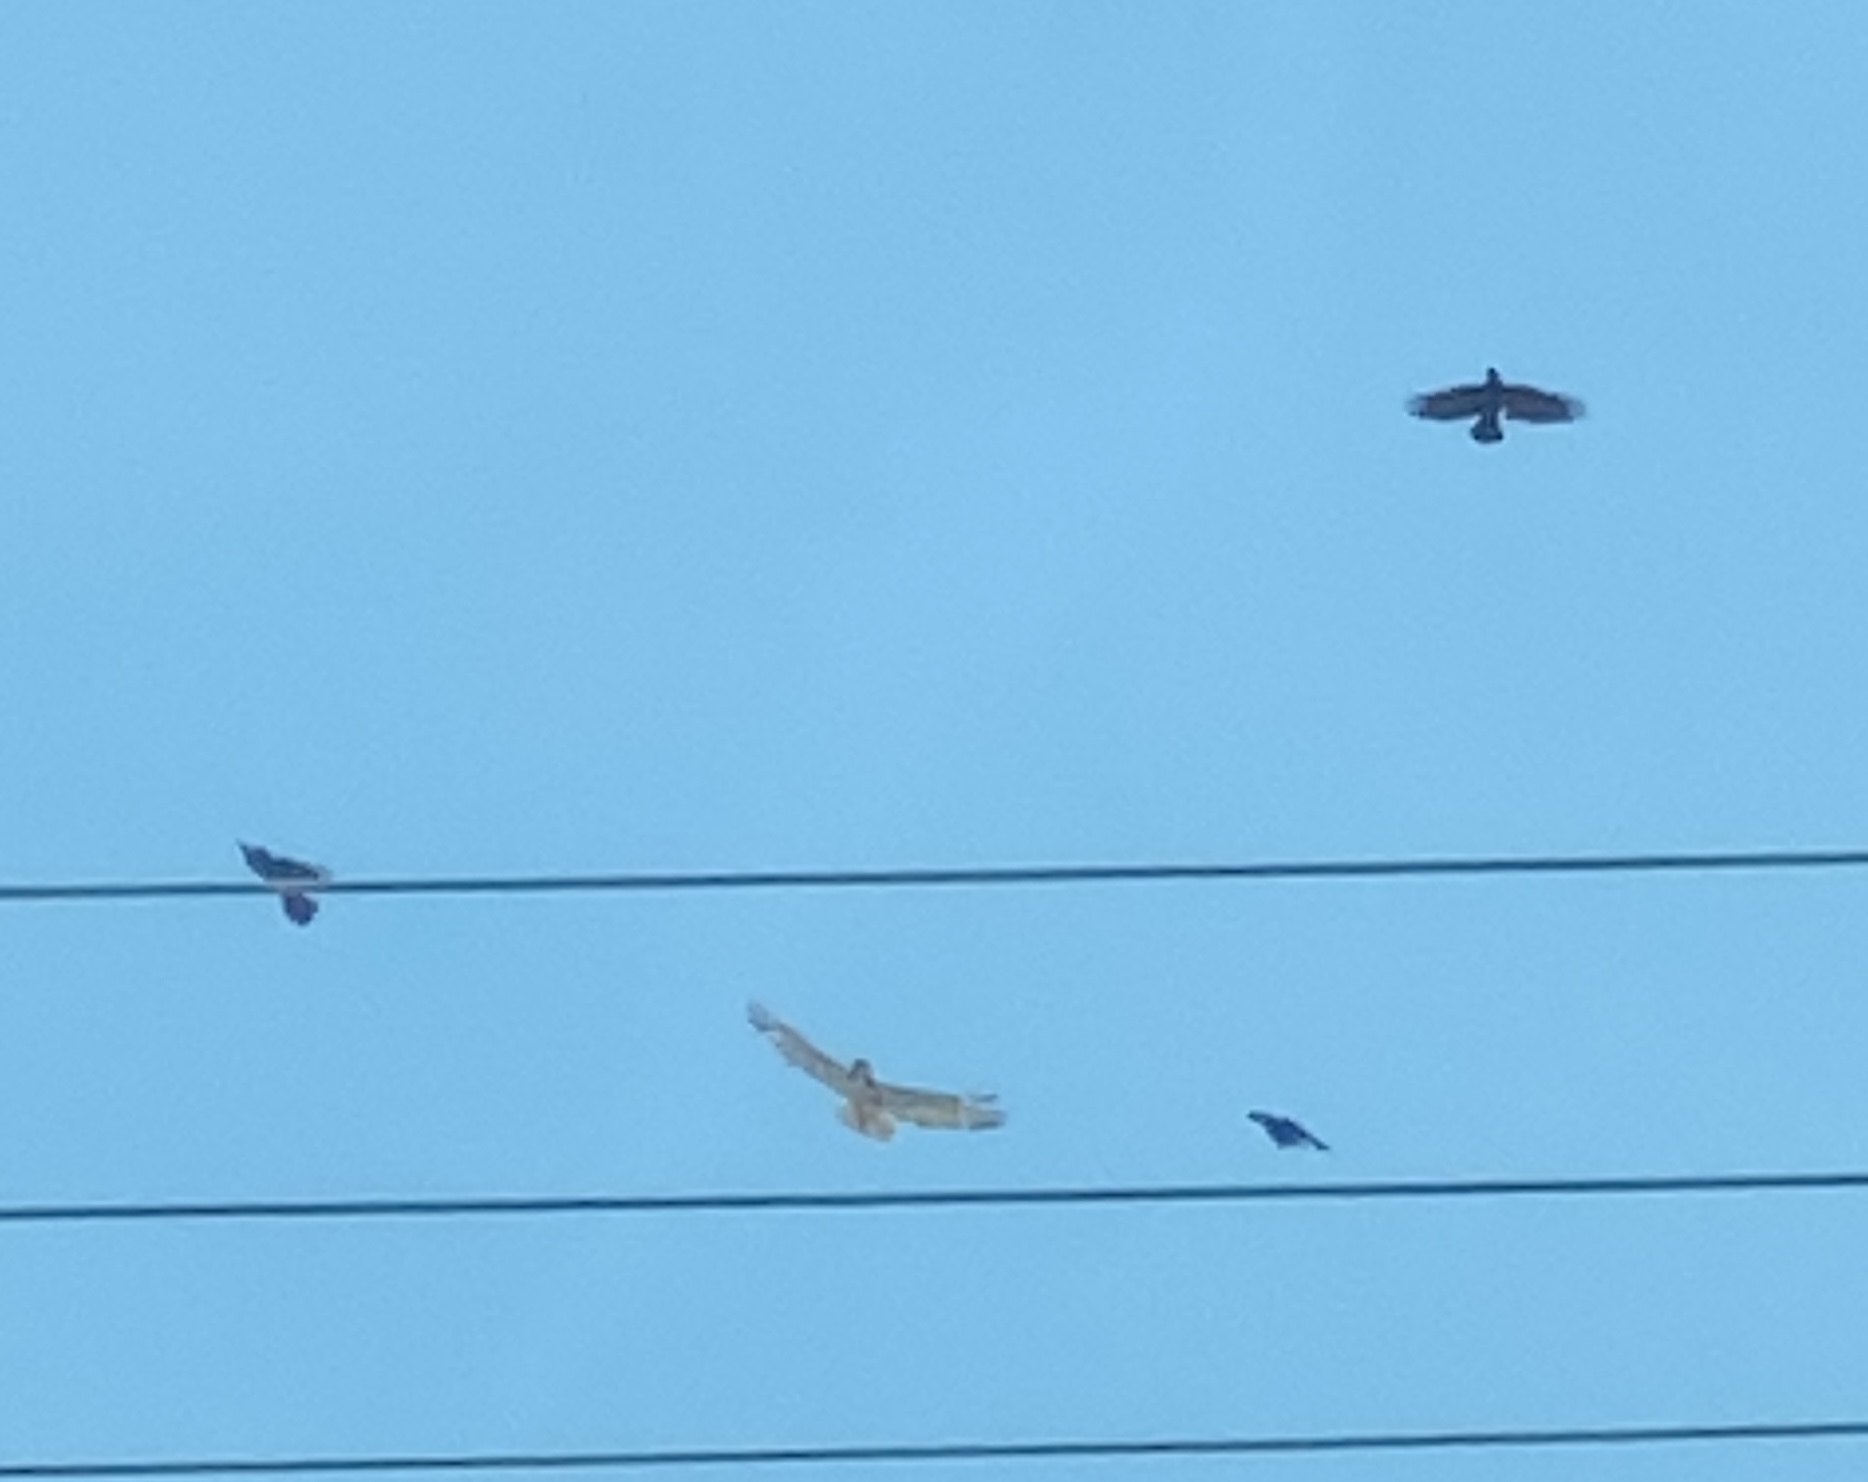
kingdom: Animalia
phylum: Chordata
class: Aves
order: Accipitriformes
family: Accipitridae
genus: Buteo
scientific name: Buteo jamaicensis
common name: Red-tailed hawk
